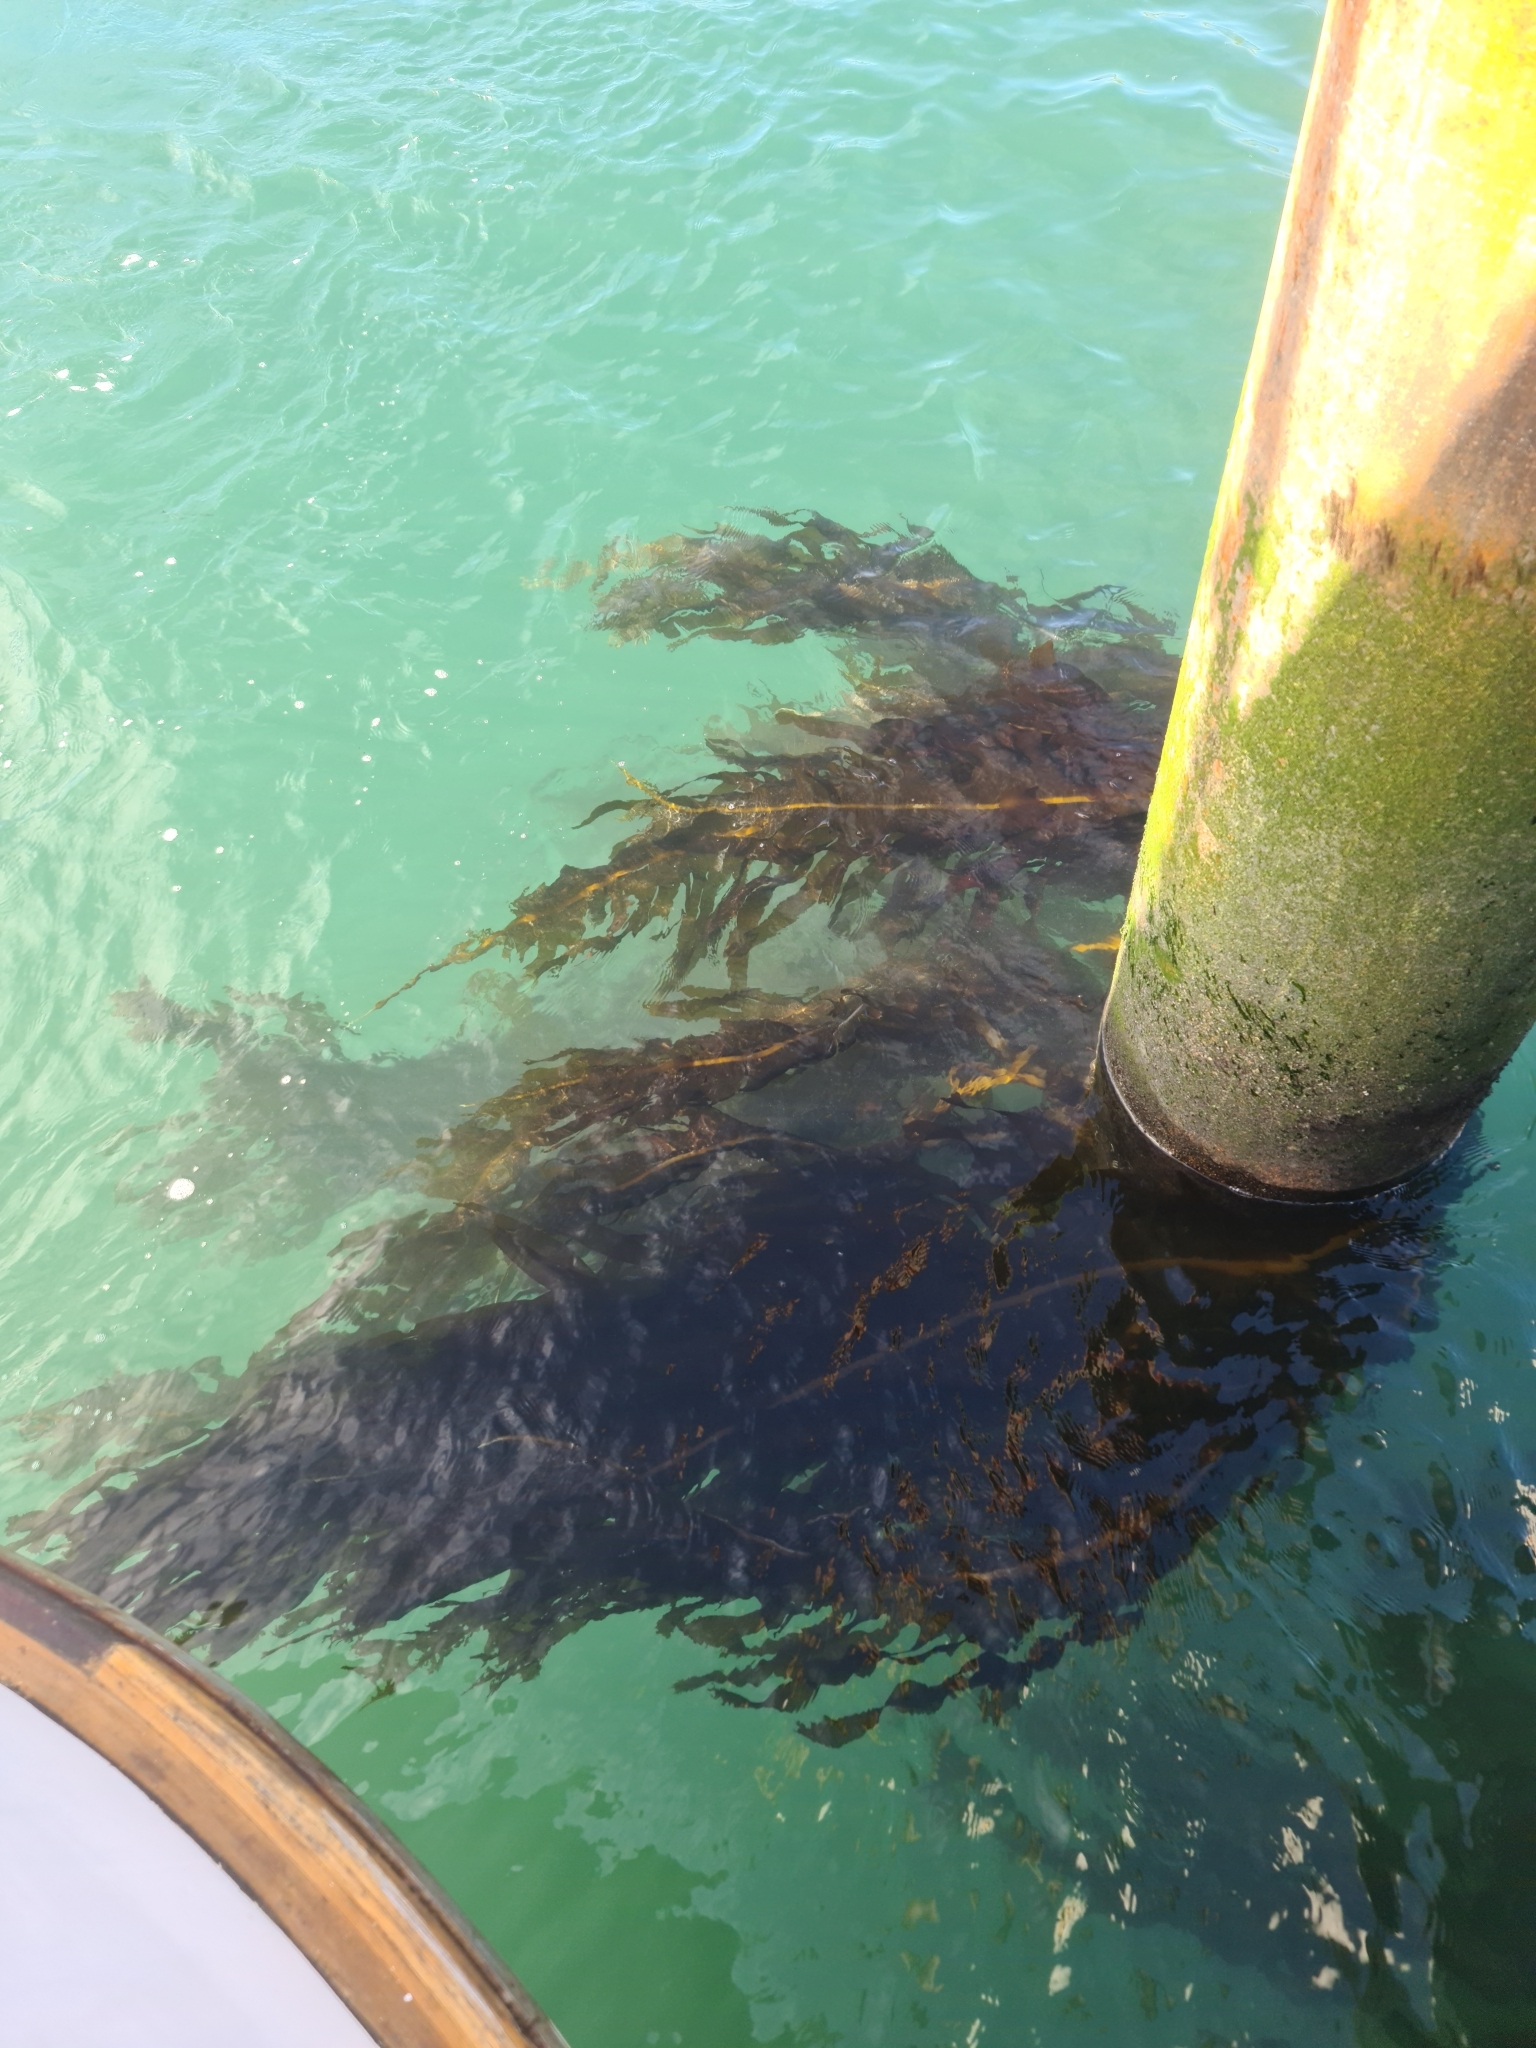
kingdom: Chromista
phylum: Ochrophyta
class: Phaeophyceae
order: Laminariales
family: Alariaceae
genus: Undaria
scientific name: Undaria pinnatifida
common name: Asian kelp
